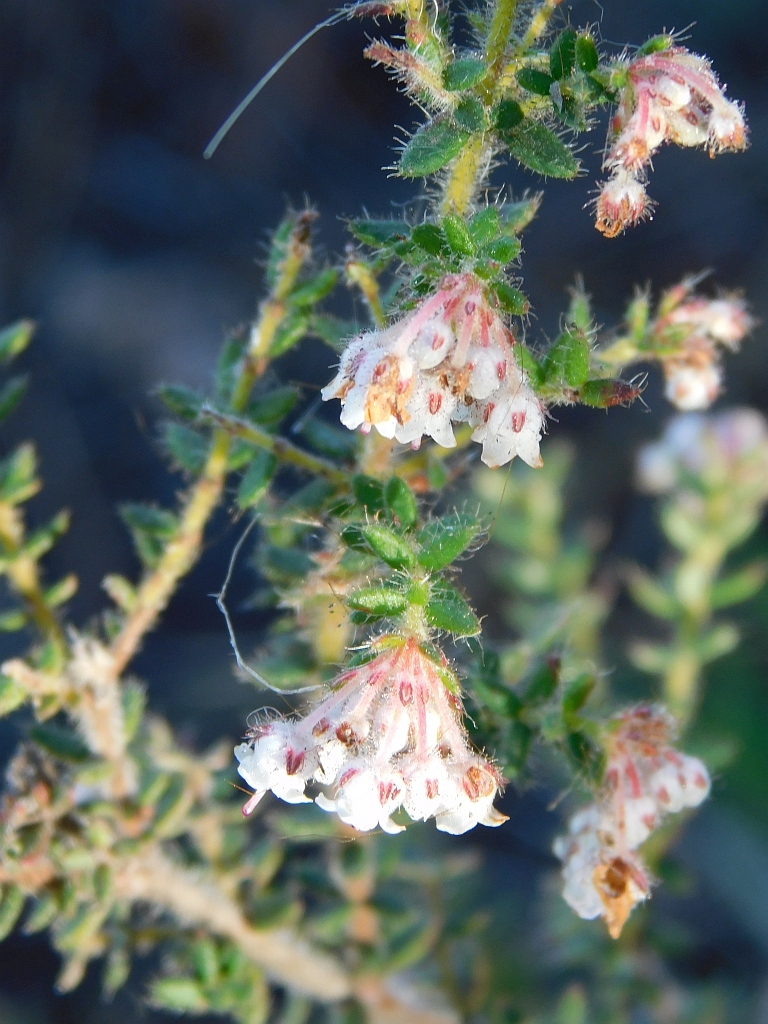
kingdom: Plantae
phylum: Tracheophyta
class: Magnoliopsida
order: Ericales
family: Ericaceae
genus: Erica
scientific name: Erica perlata
